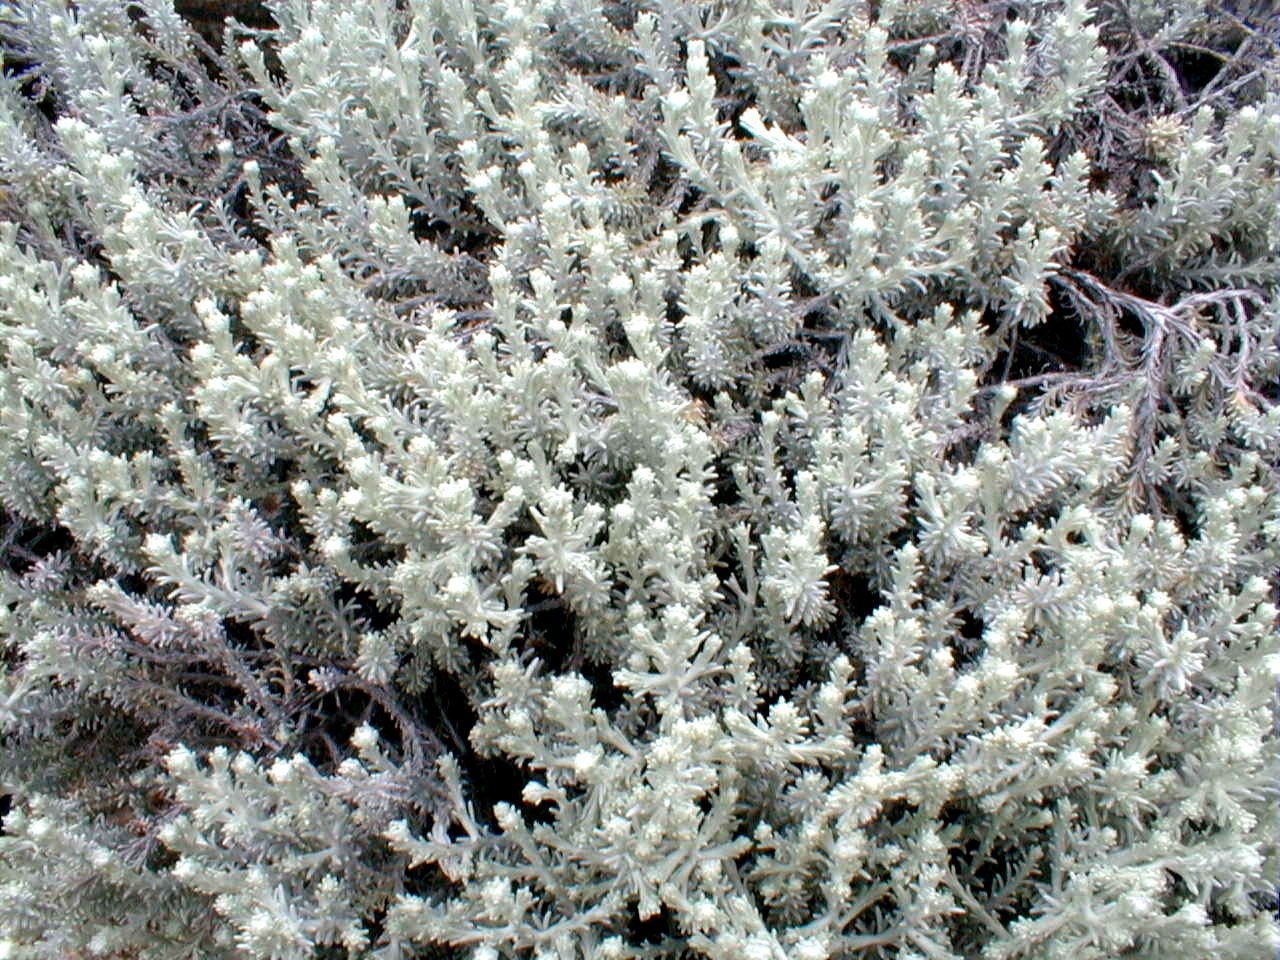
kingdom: Plantae
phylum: Tracheophyta
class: Magnoliopsida
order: Asterales
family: Asteraceae
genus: Calocephalus
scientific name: Calocephalus brownii
